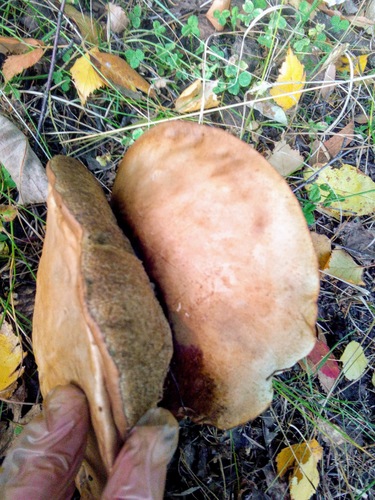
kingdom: Fungi
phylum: Basidiomycota
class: Agaricomycetes
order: Boletales
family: Boletaceae
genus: Leccinum
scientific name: Leccinum
